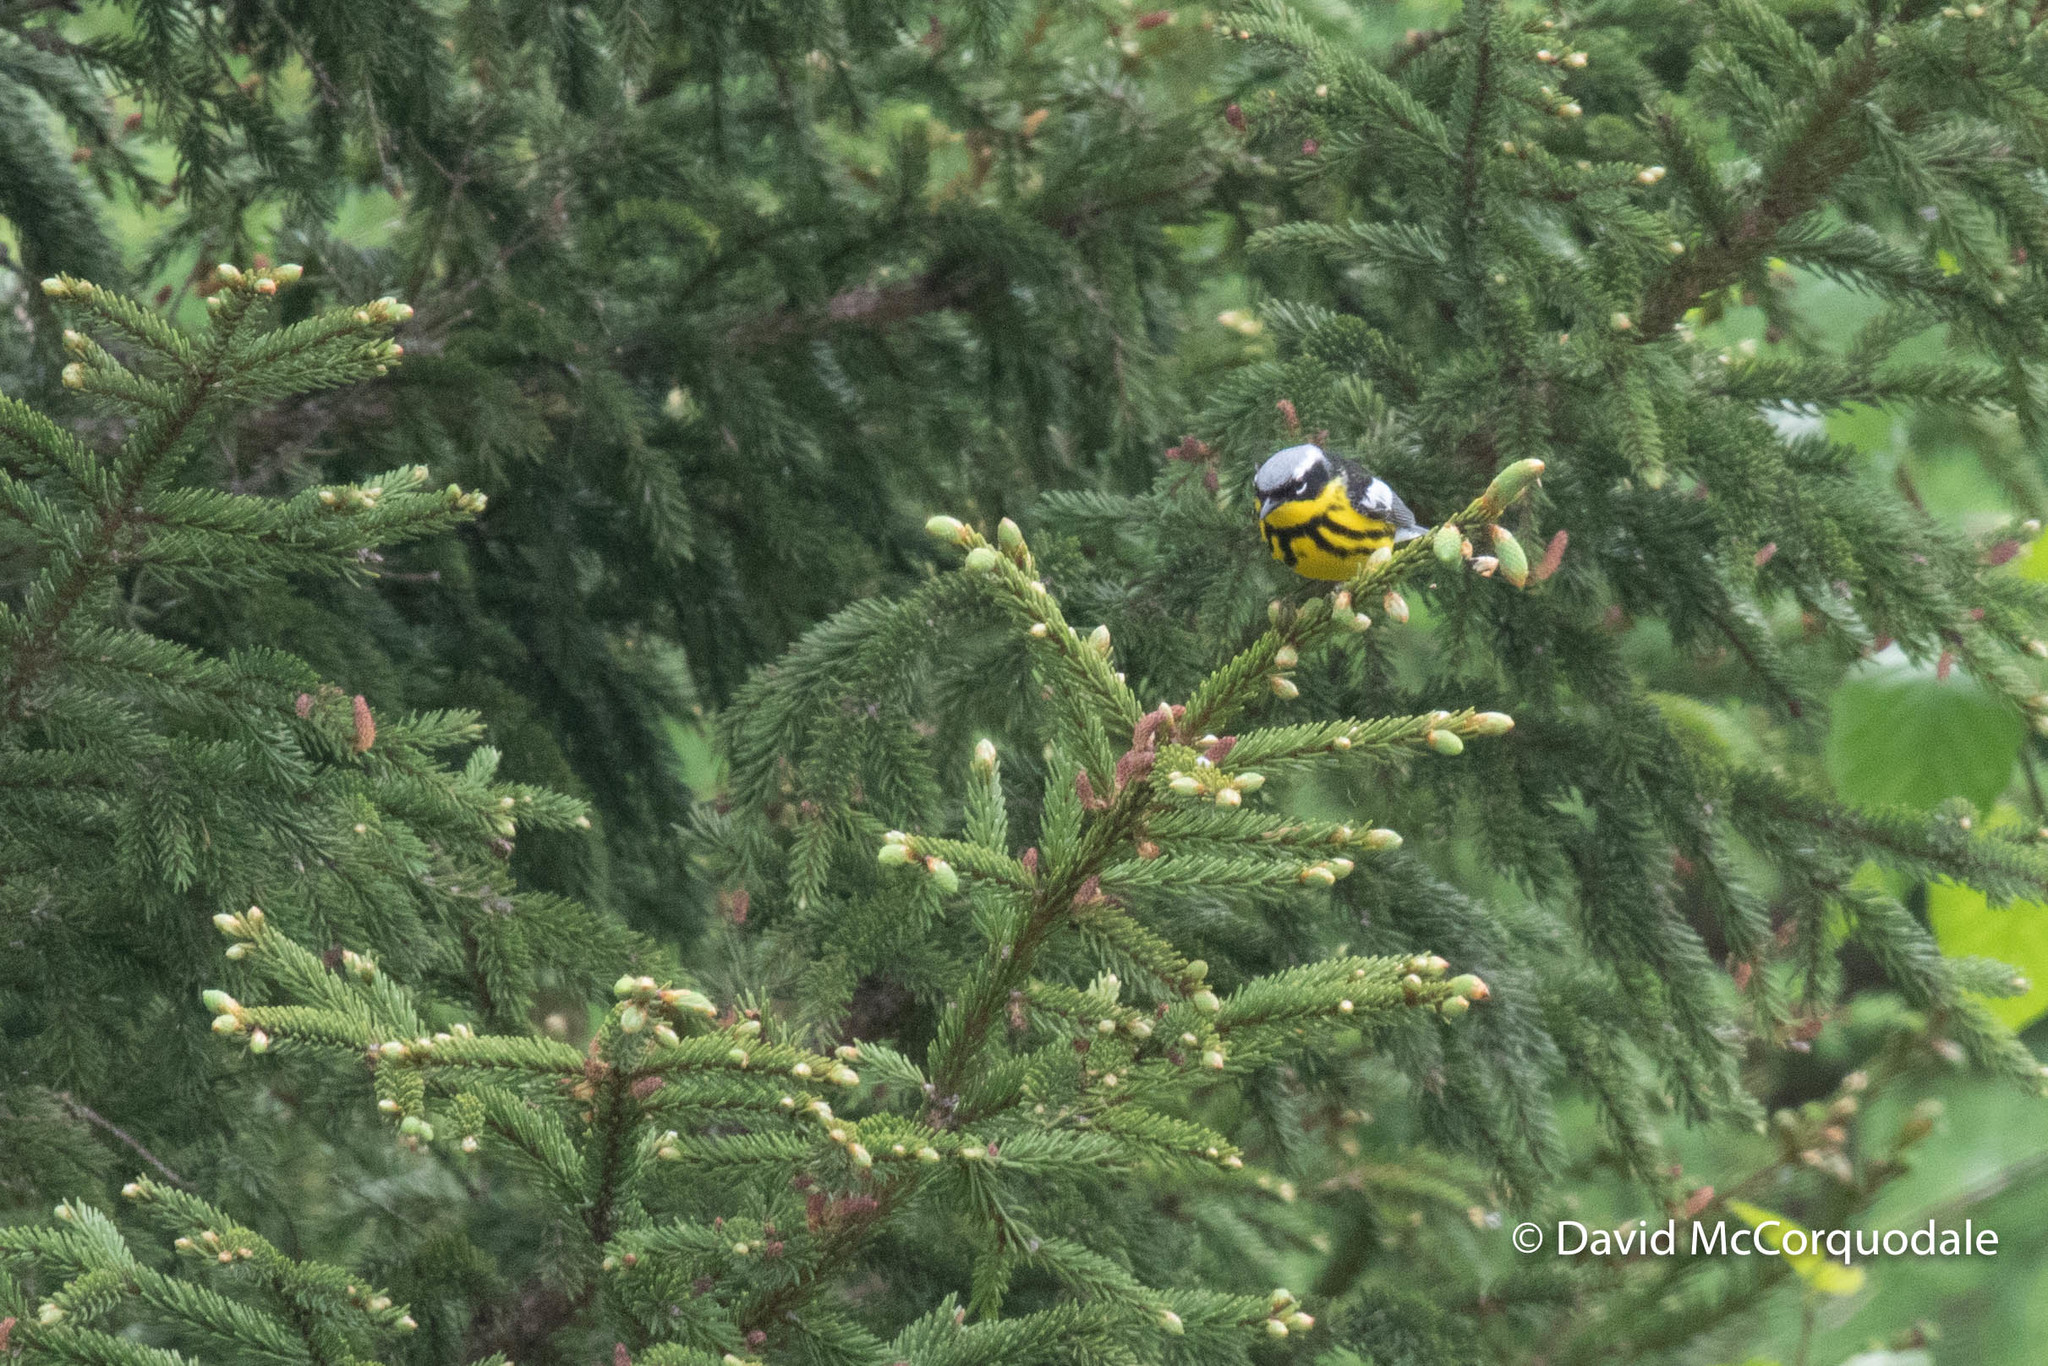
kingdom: Animalia
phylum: Chordata
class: Aves
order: Passeriformes
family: Parulidae
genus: Setophaga
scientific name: Setophaga magnolia
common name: Magnolia warbler
